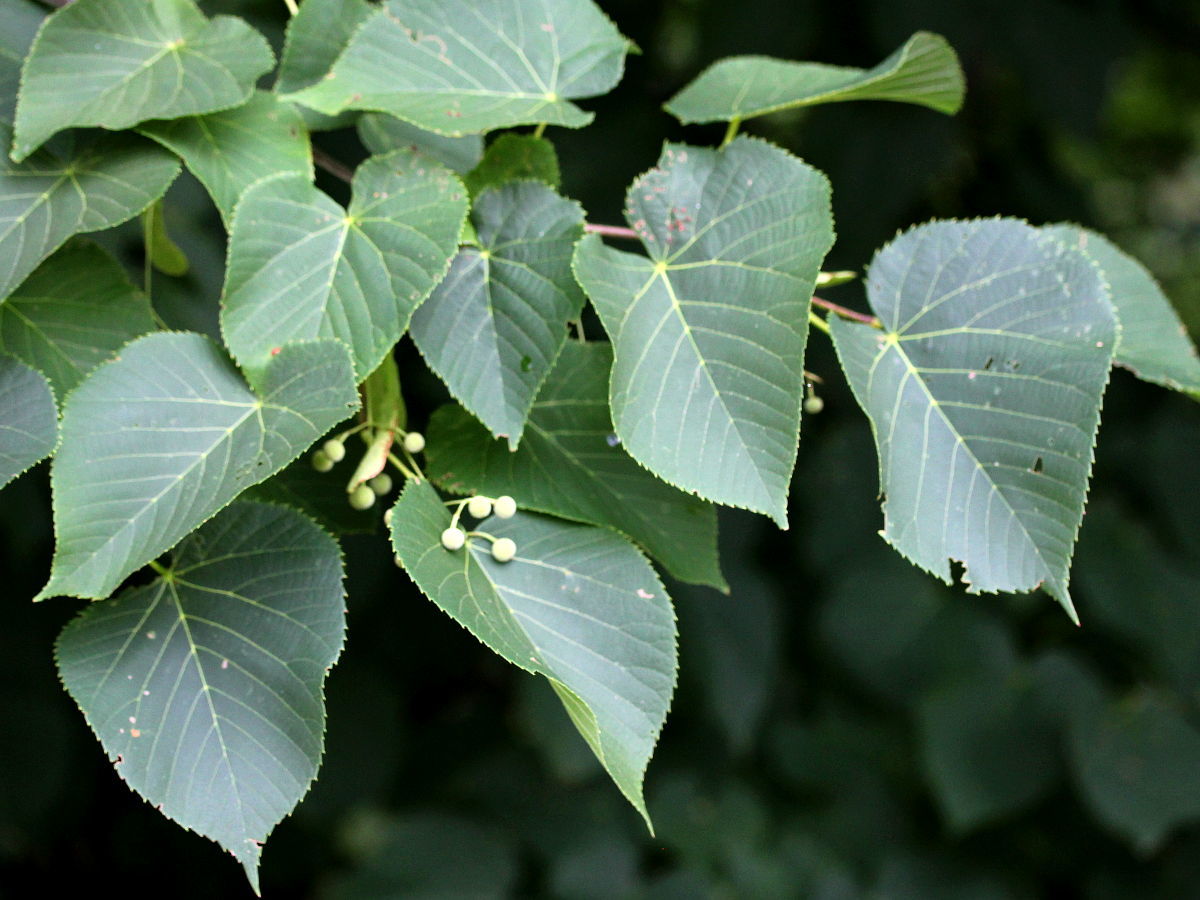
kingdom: Plantae
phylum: Tracheophyta
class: Magnoliopsida
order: Malvales
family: Malvaceae
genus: Tilia
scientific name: Tilia americana
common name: Basswood
